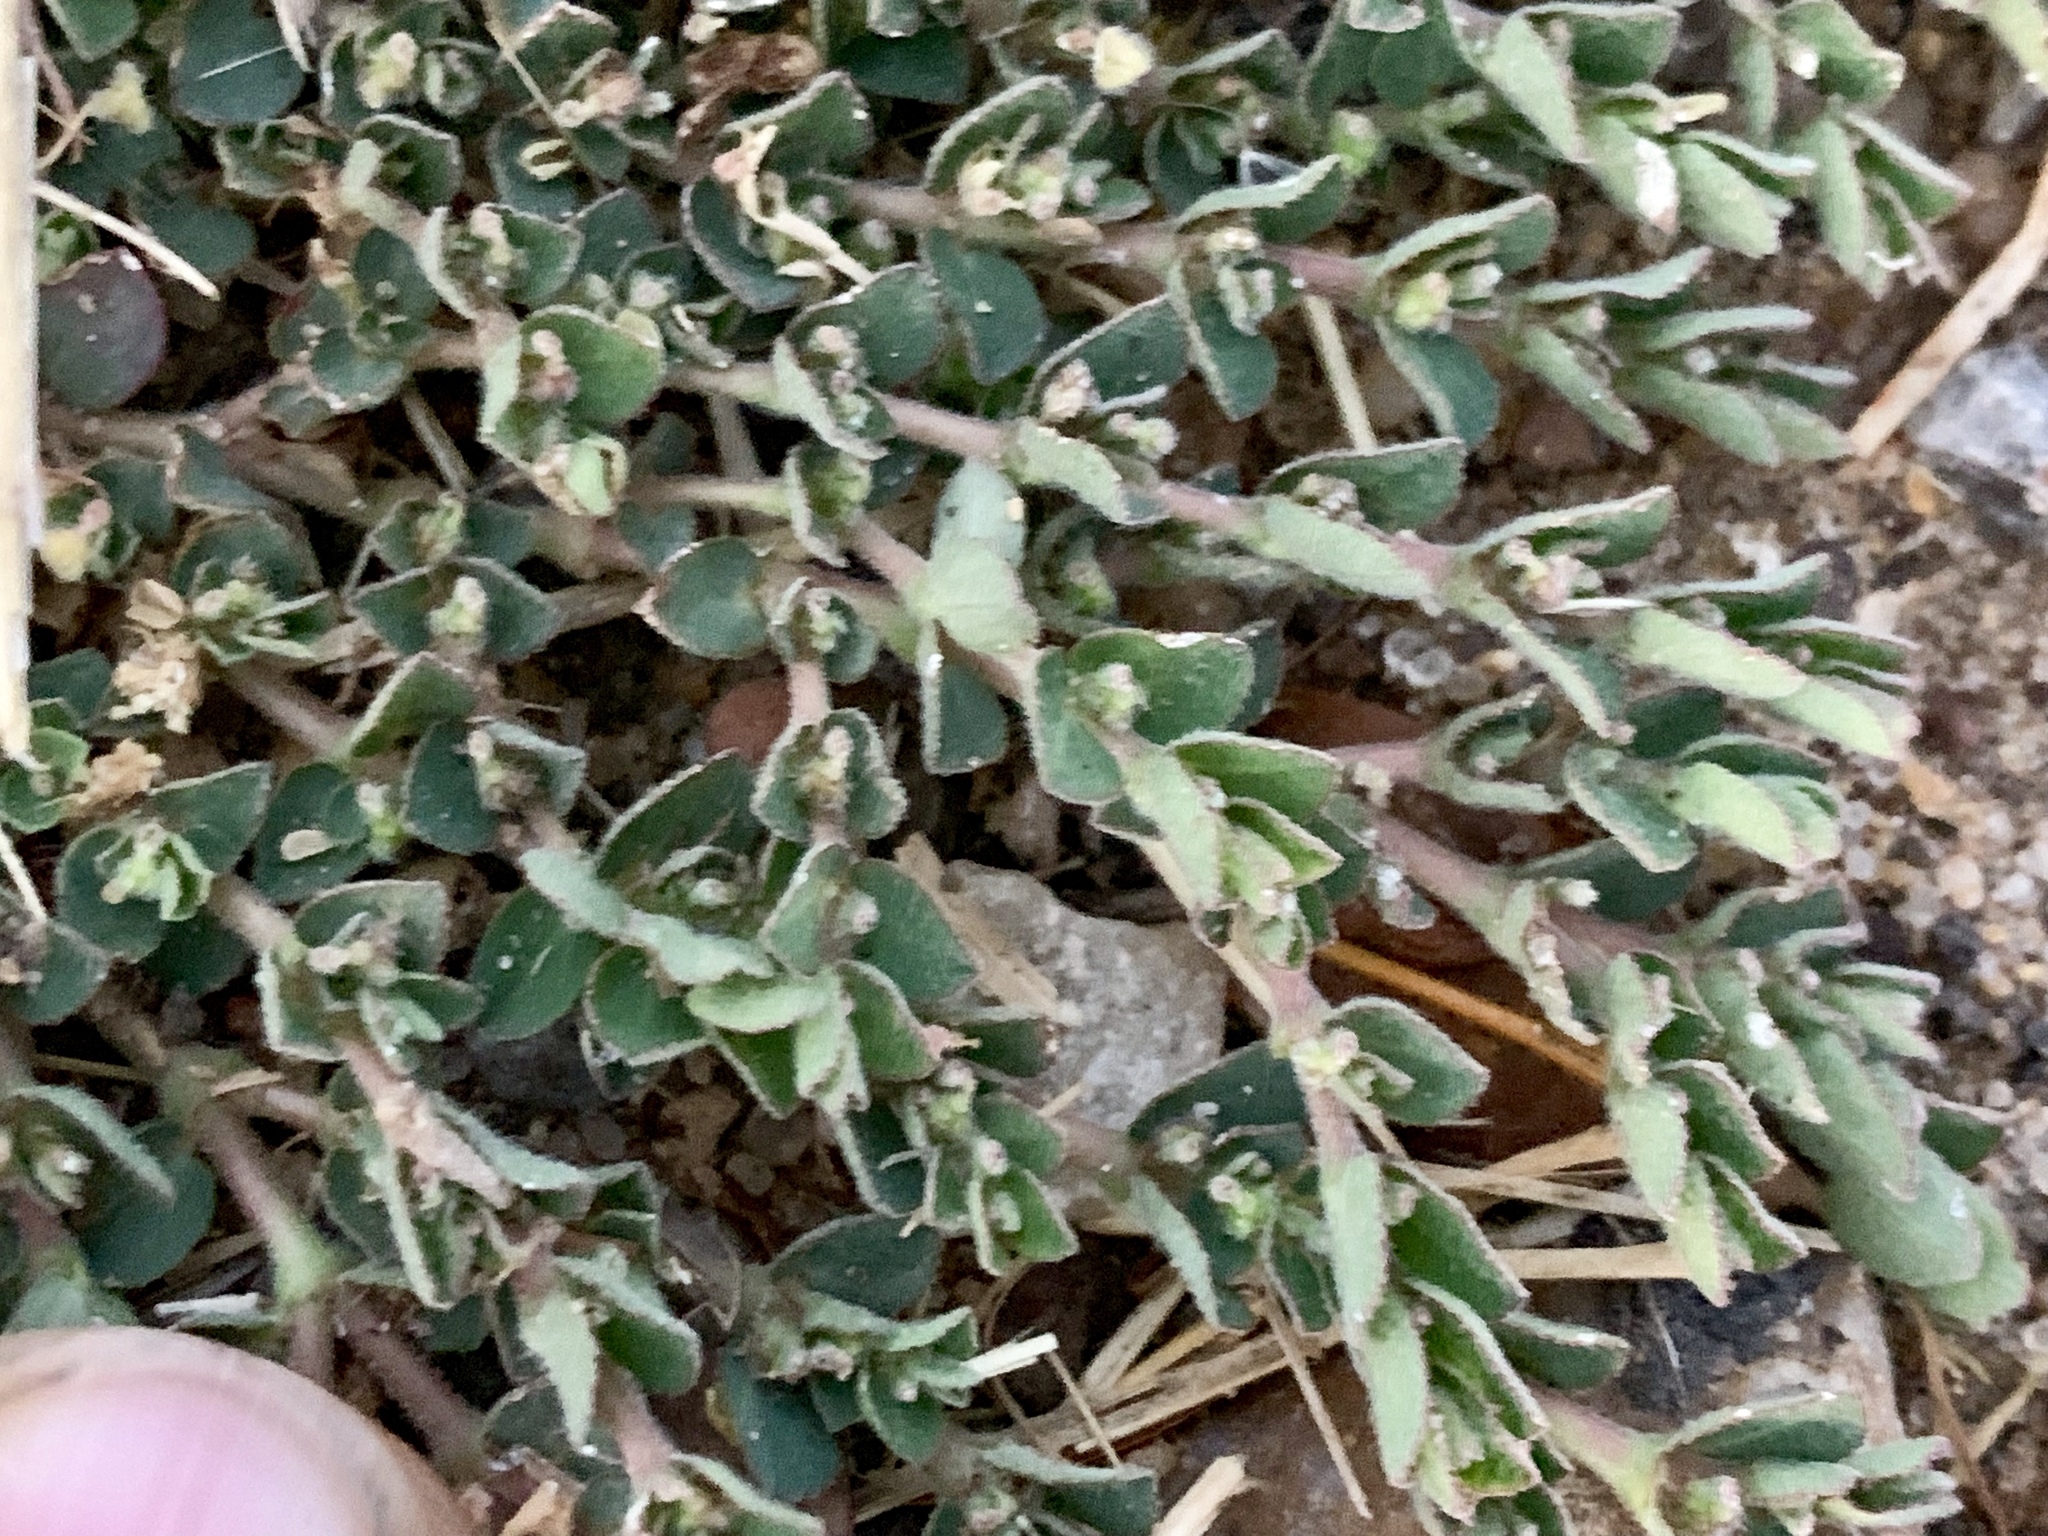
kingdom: Plantae
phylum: Tracheophyta
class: Magnoliopsida
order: Malpighiales
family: Euphorbiaceae
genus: Euphorbia
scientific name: Euphorbia prostrata
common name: Prostrate sandmat
